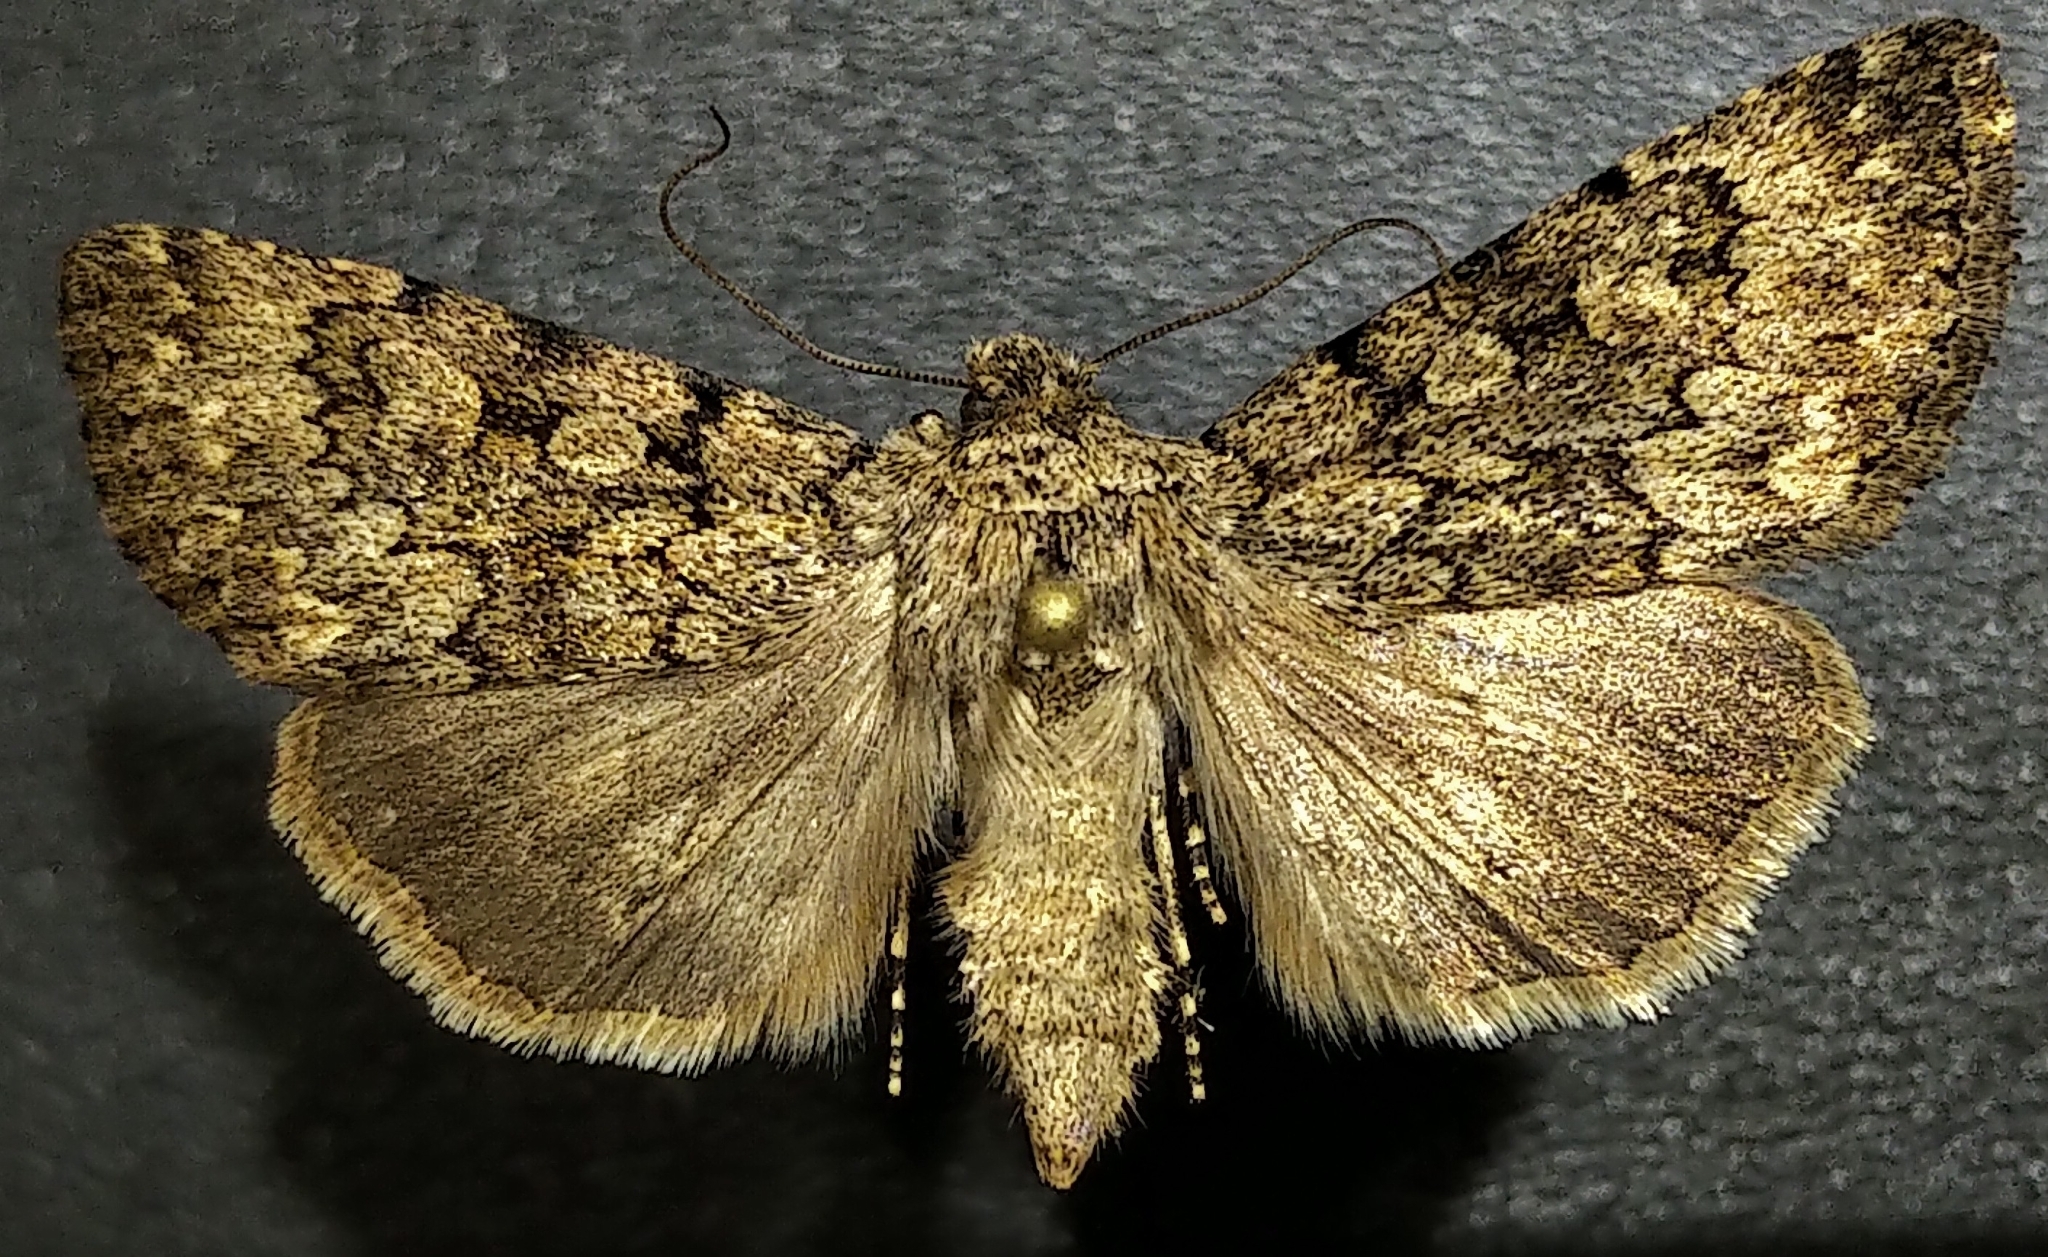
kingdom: Animalia
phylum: Arthropoda
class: Insecta
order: Lepidoptera
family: Noctuidae
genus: Sympistis
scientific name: Sympistis glennyi
